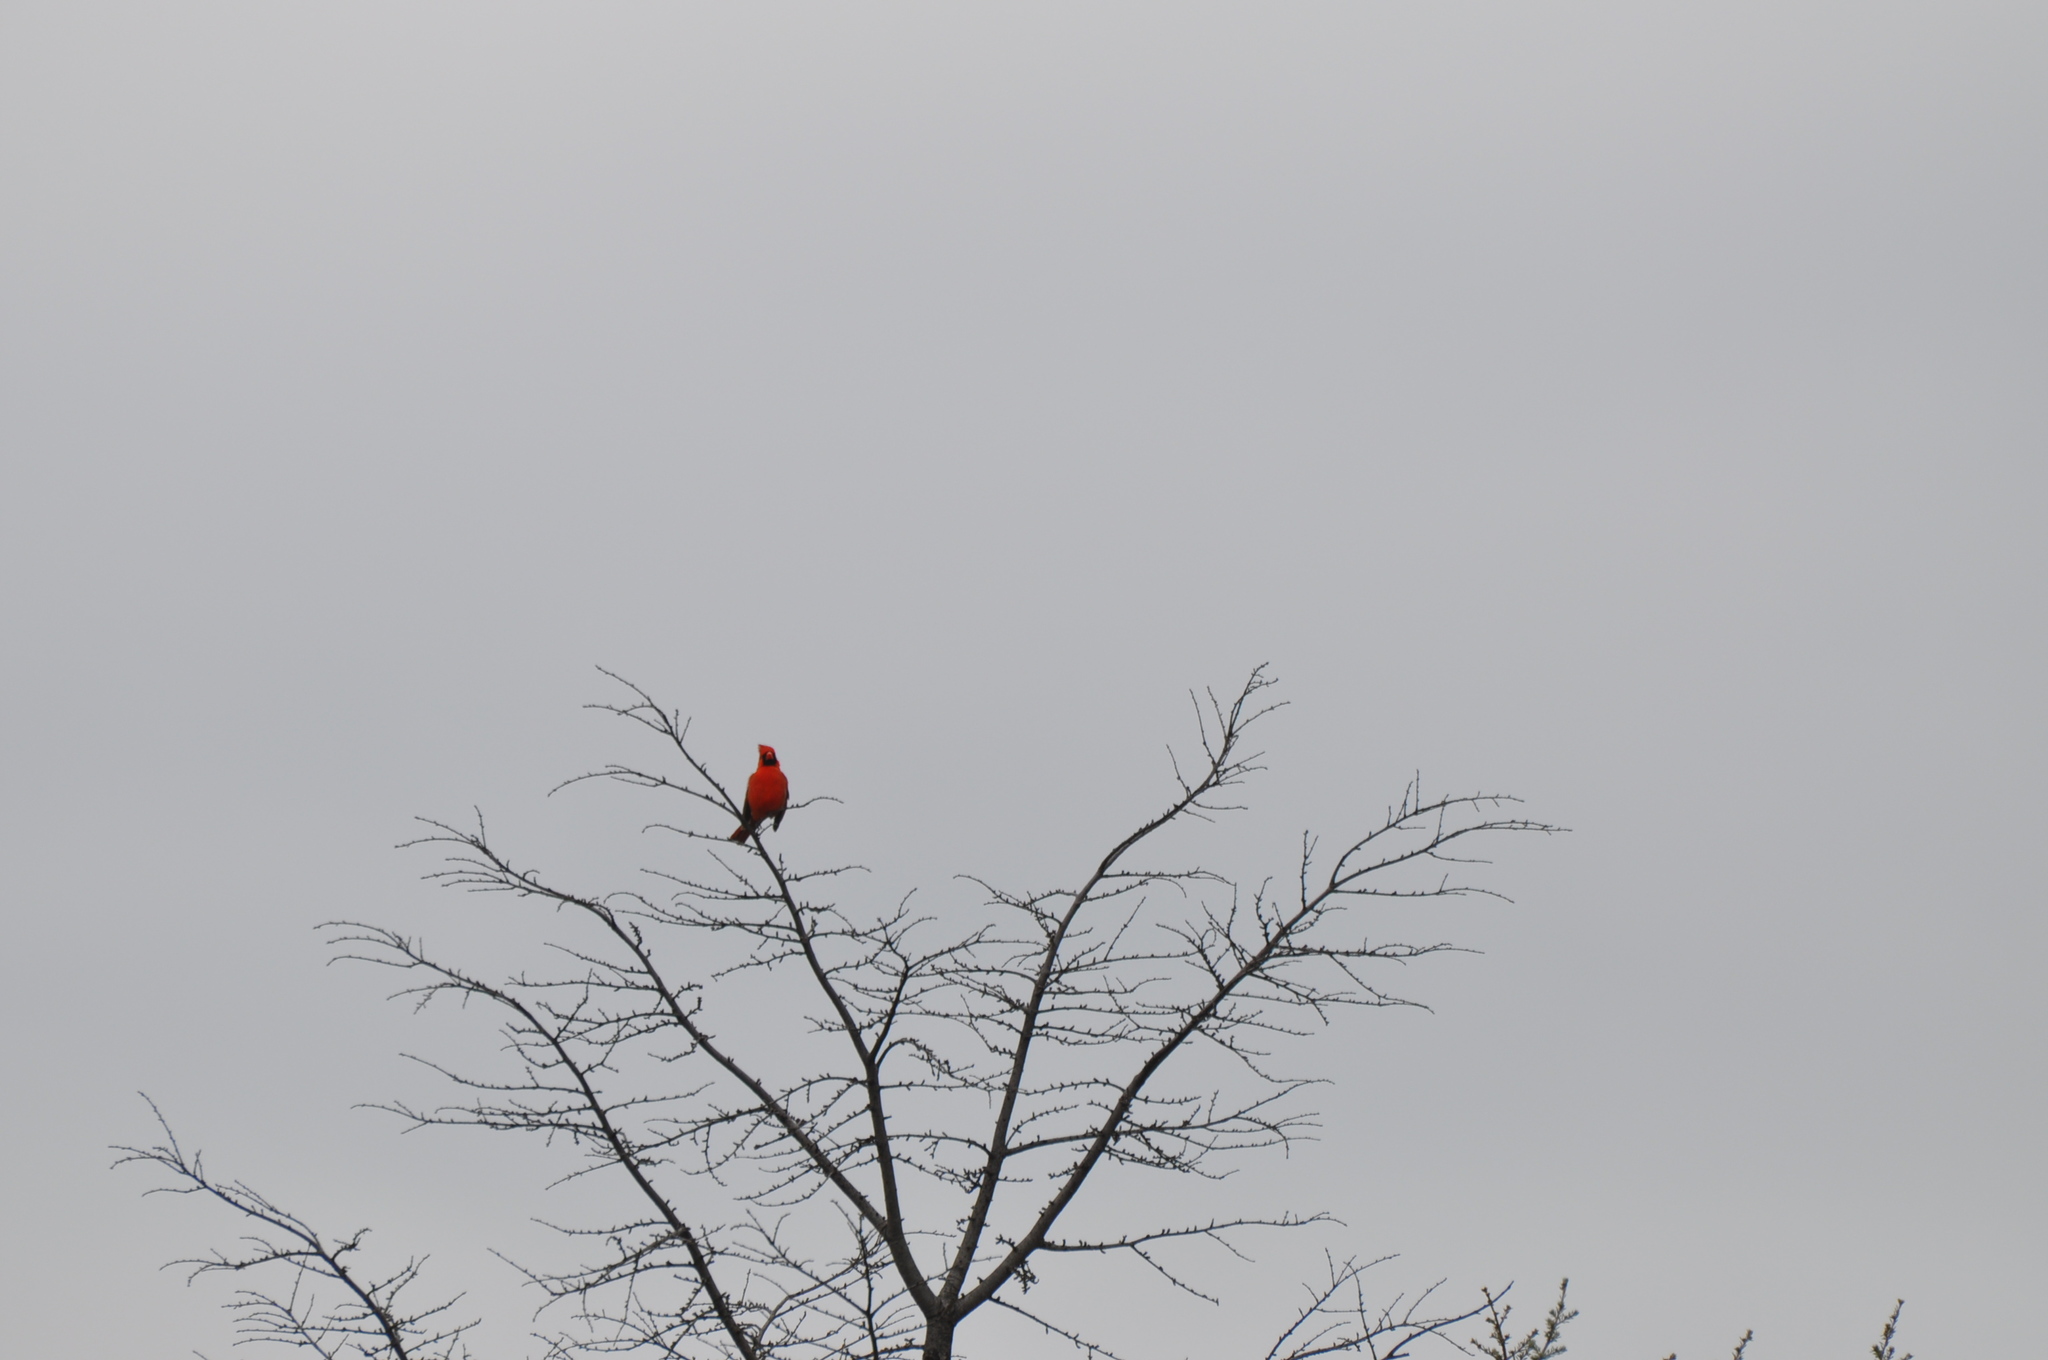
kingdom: Animalia
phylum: Chordata
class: Aves
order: Passeriformes
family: Cardinalidae
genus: Cardinalis
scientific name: Cardinalis cardinalis
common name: Northern cardinal
